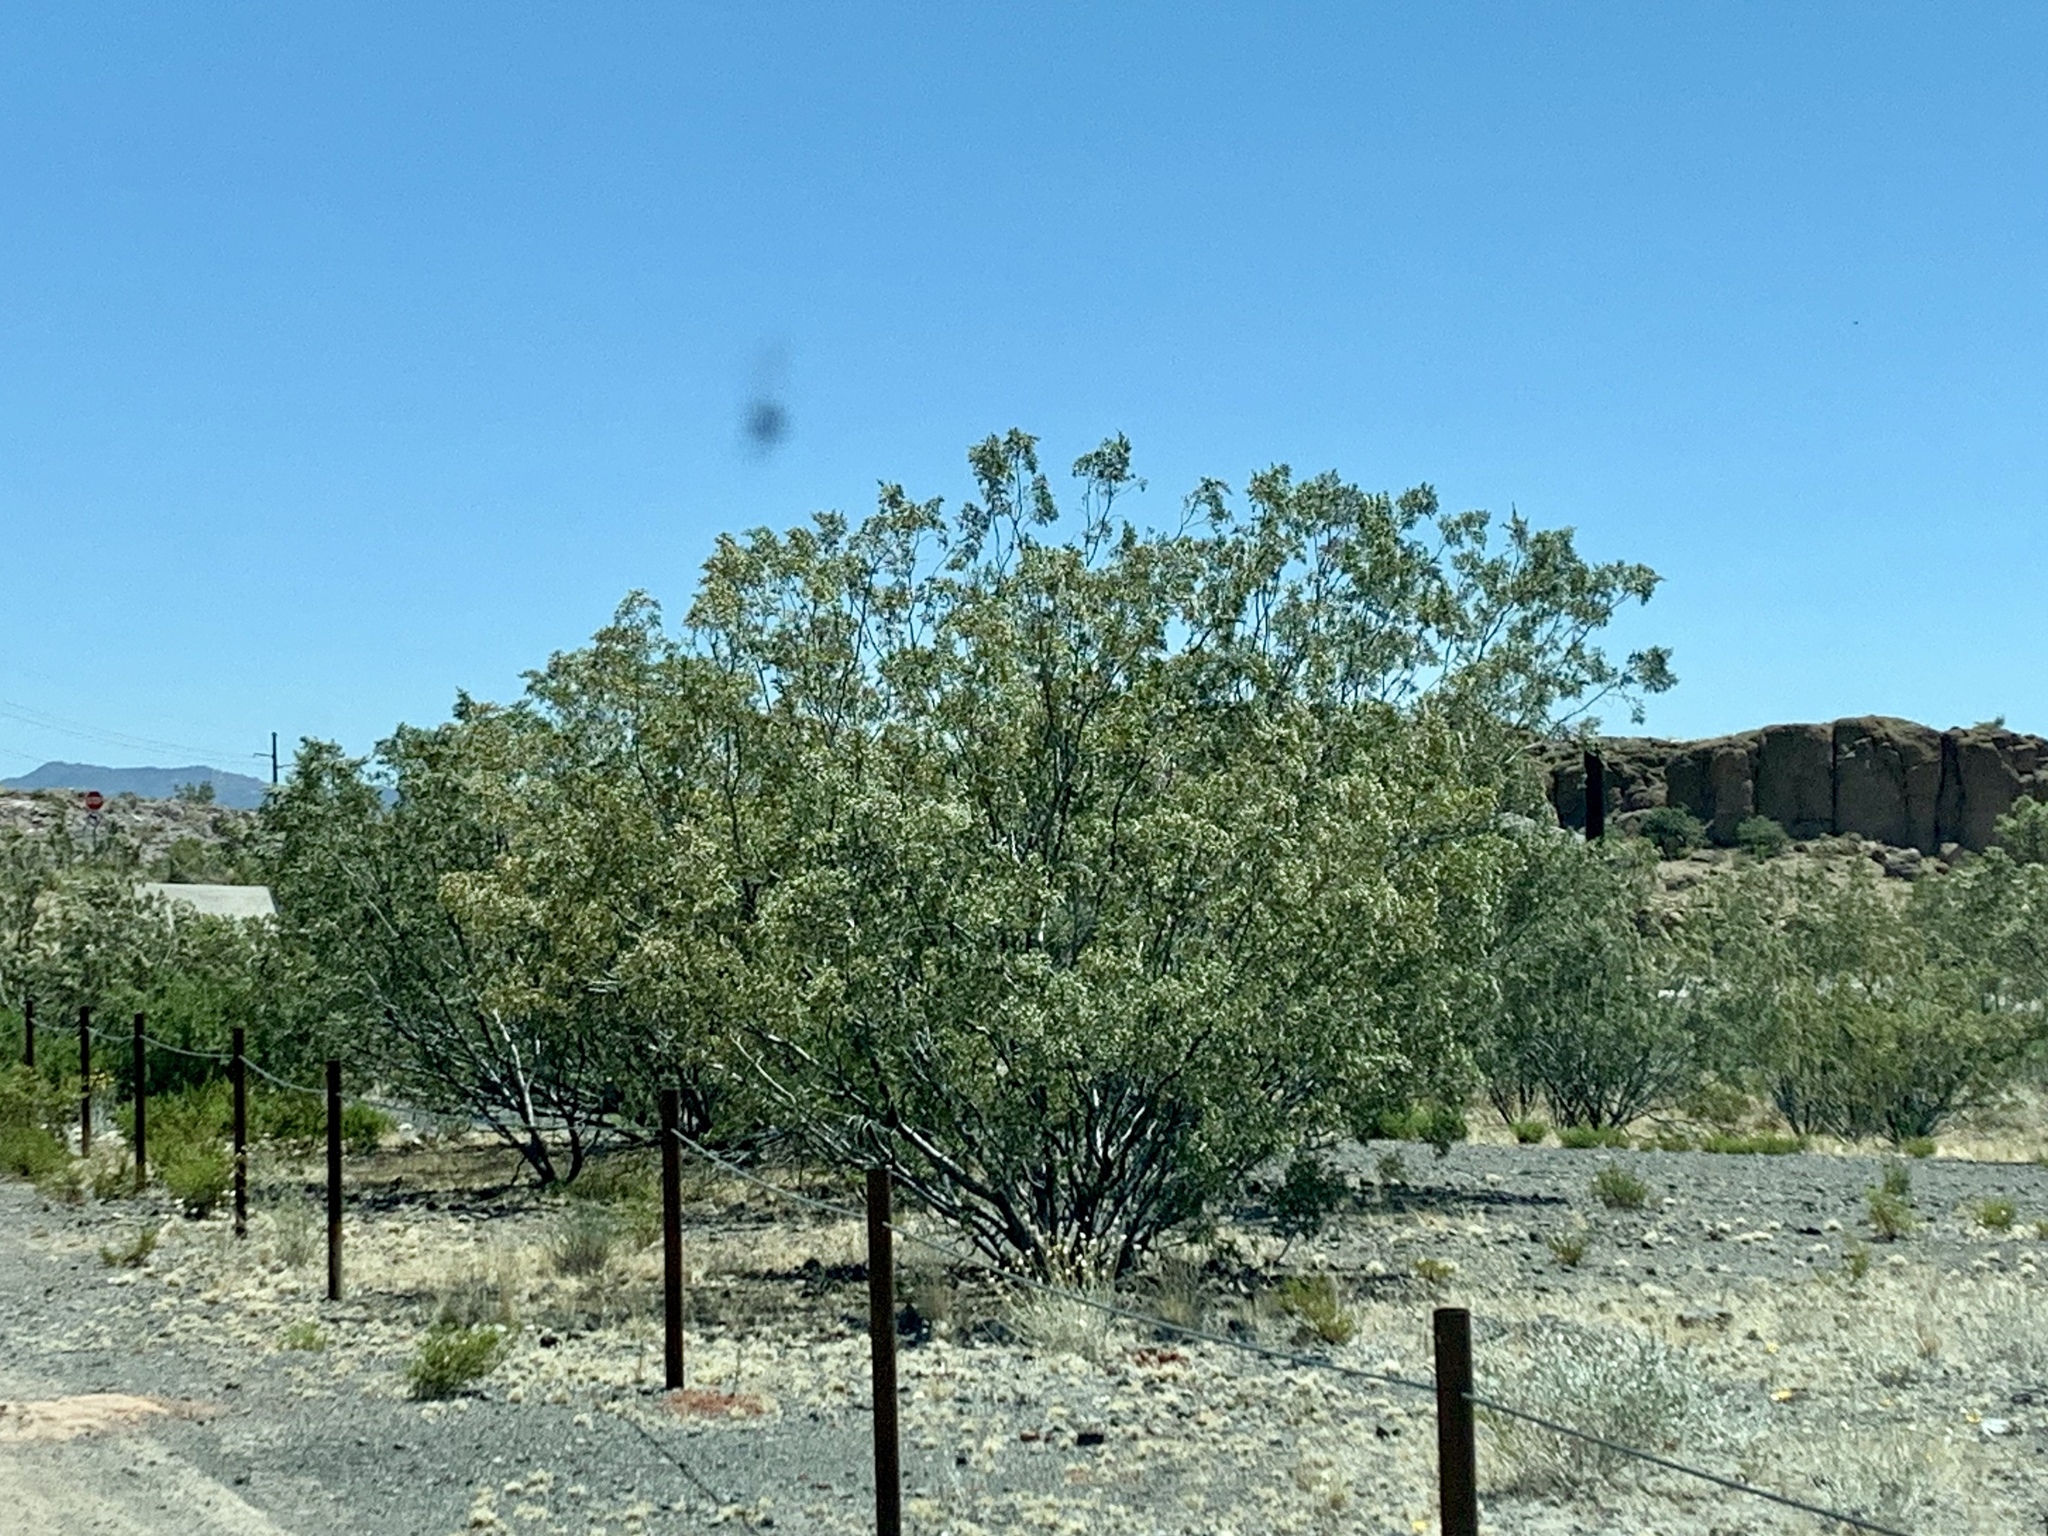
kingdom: Plantae
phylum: Tracheophyta
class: Magnoliopsida
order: Zygophyllales
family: Zygophyllaceae
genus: Larrea
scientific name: Larrea tridentata
